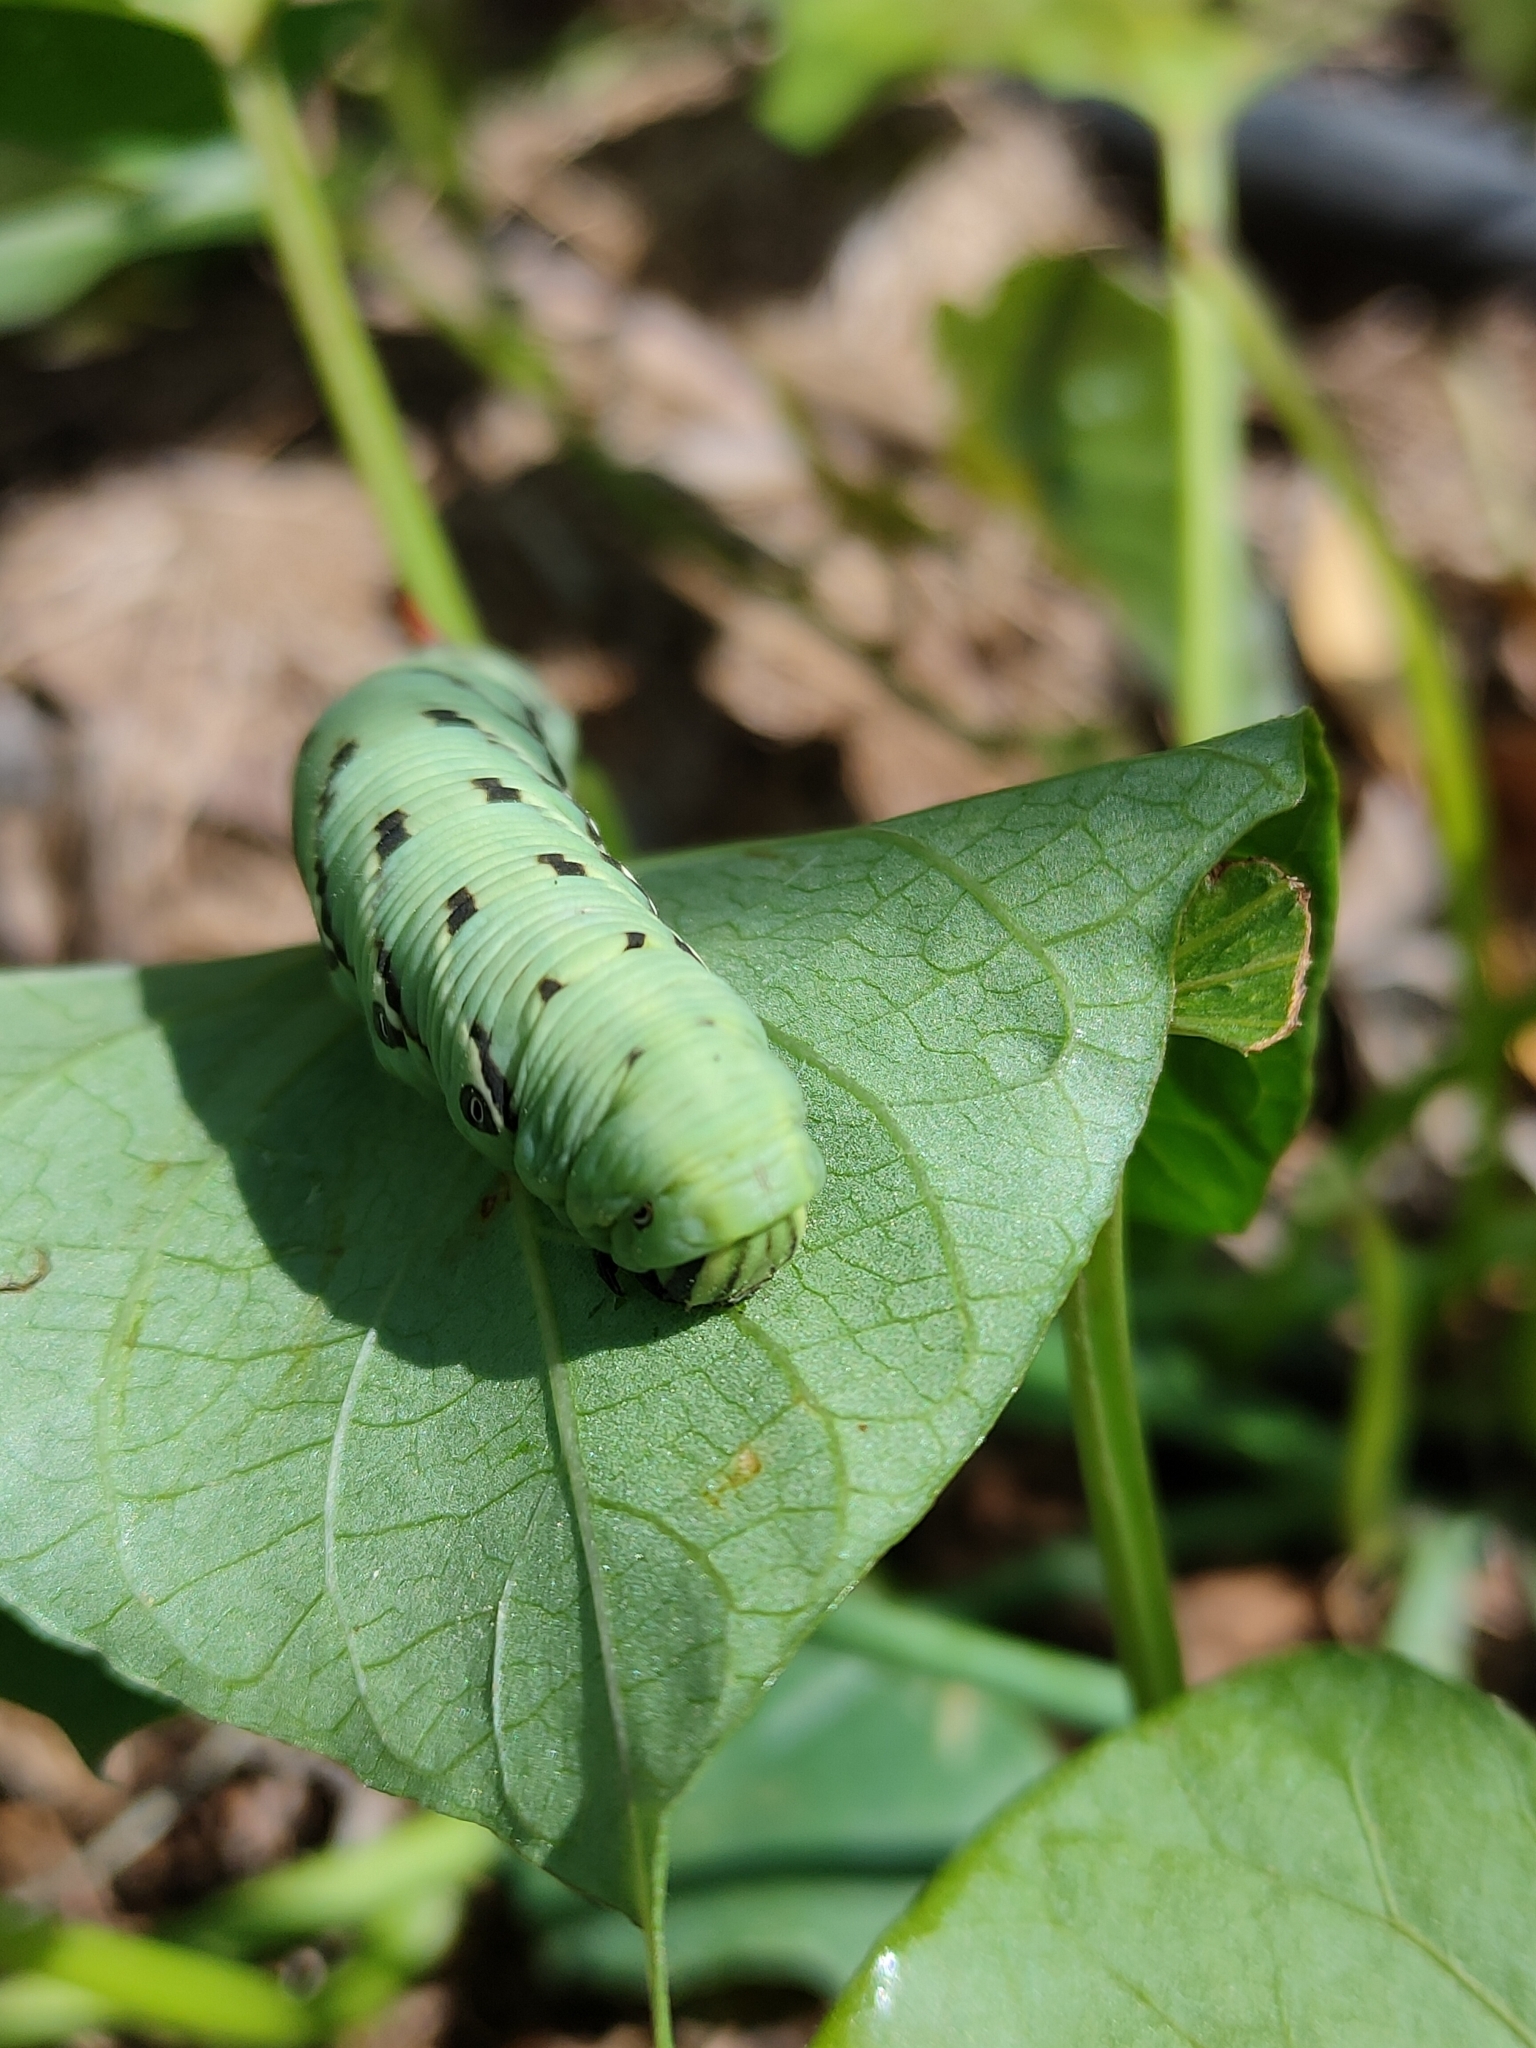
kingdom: Animalia
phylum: Arthropoda
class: Insecta
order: Lepidoptera
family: Sphingidae
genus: Agrius
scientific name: Agrius convolvuli
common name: Convolvulus hawkmoth
